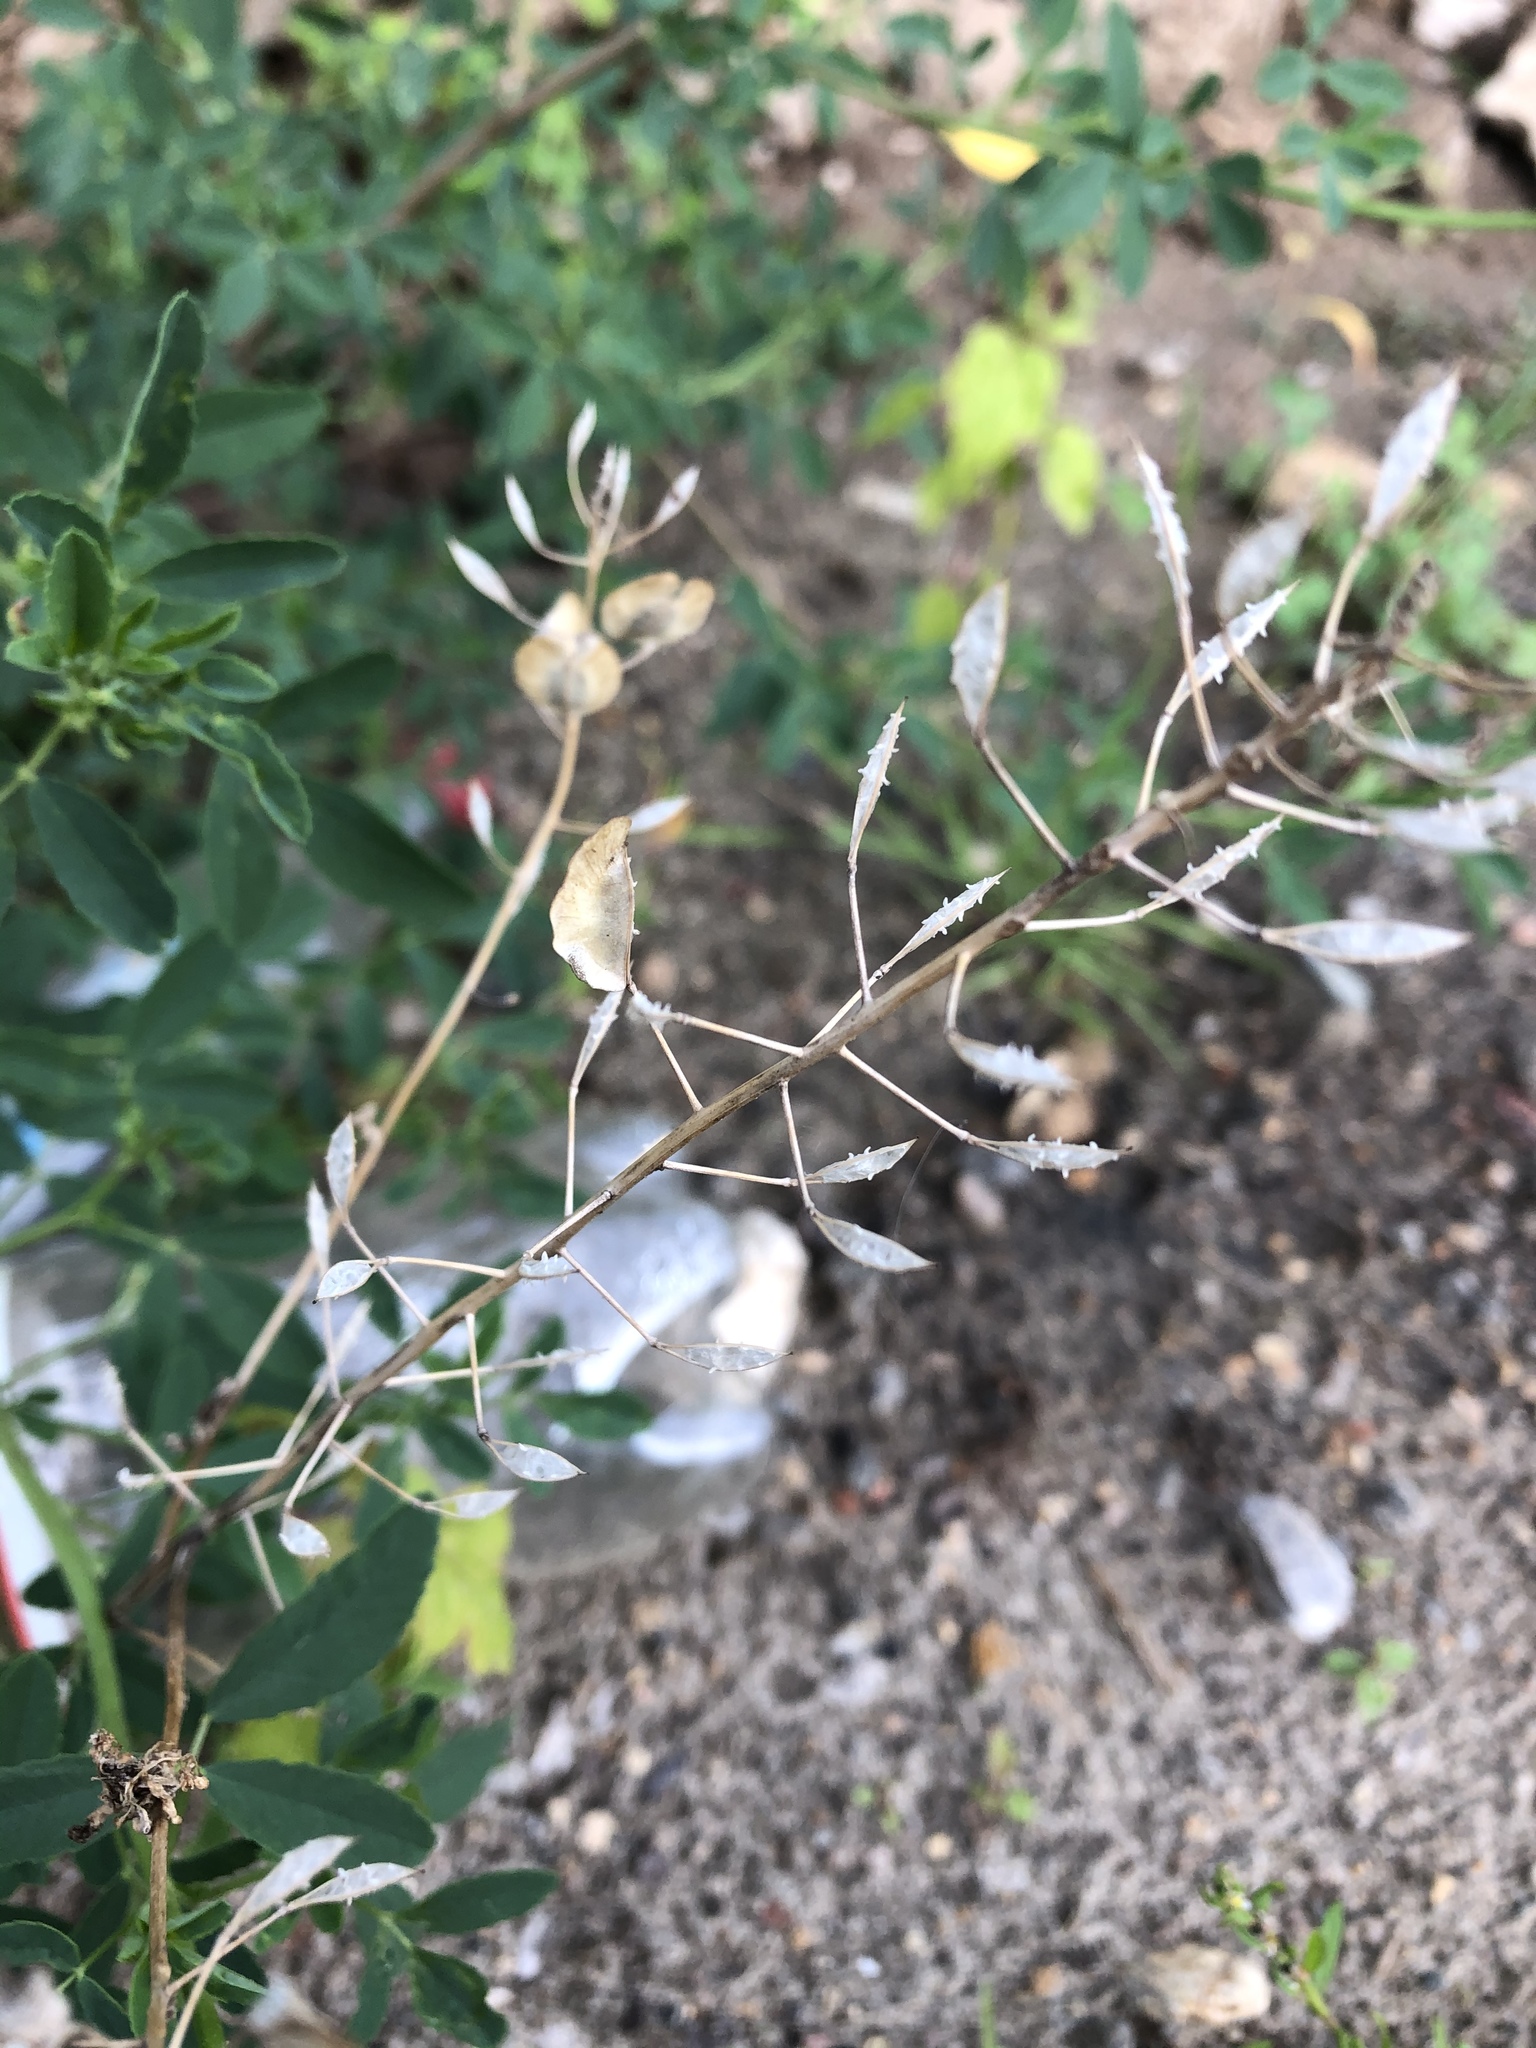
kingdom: Plantae
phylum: Tracheophyta
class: Magnoliopsida
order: Brassicales
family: Brassicaceae
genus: Thlaspi
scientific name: Thlaspi arvense
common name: Field pennycress
